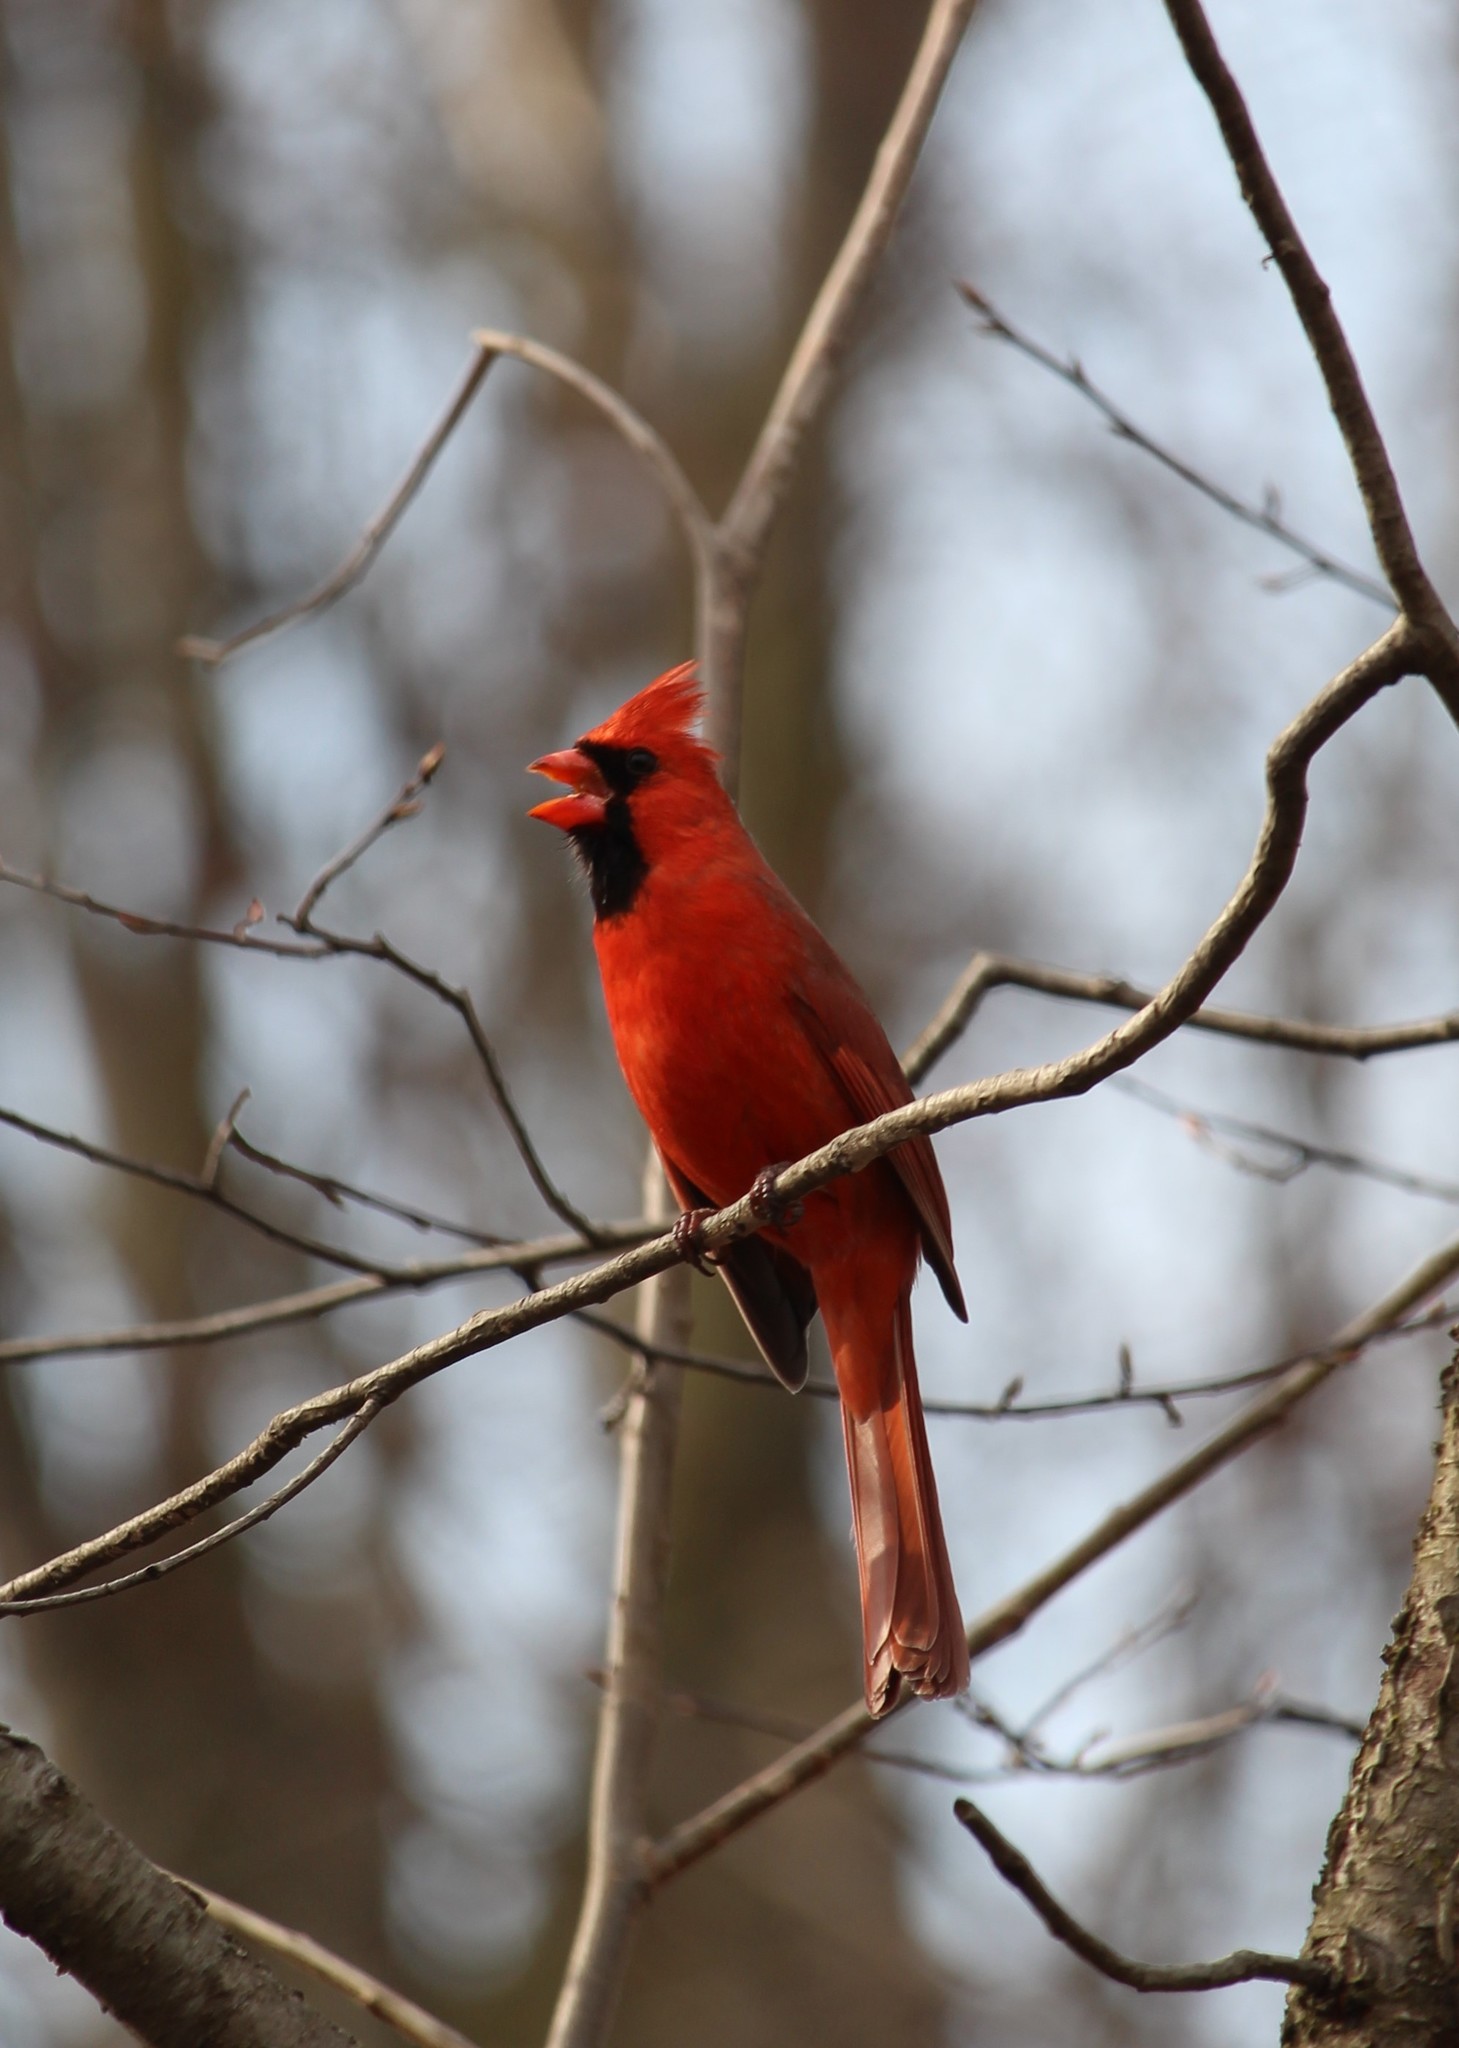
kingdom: Animalia
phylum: Chordata
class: Aves
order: Passeriformes
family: Cardinalidae
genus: Cardinalis
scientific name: Cardinalis cardinalis
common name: Northern cardinal
